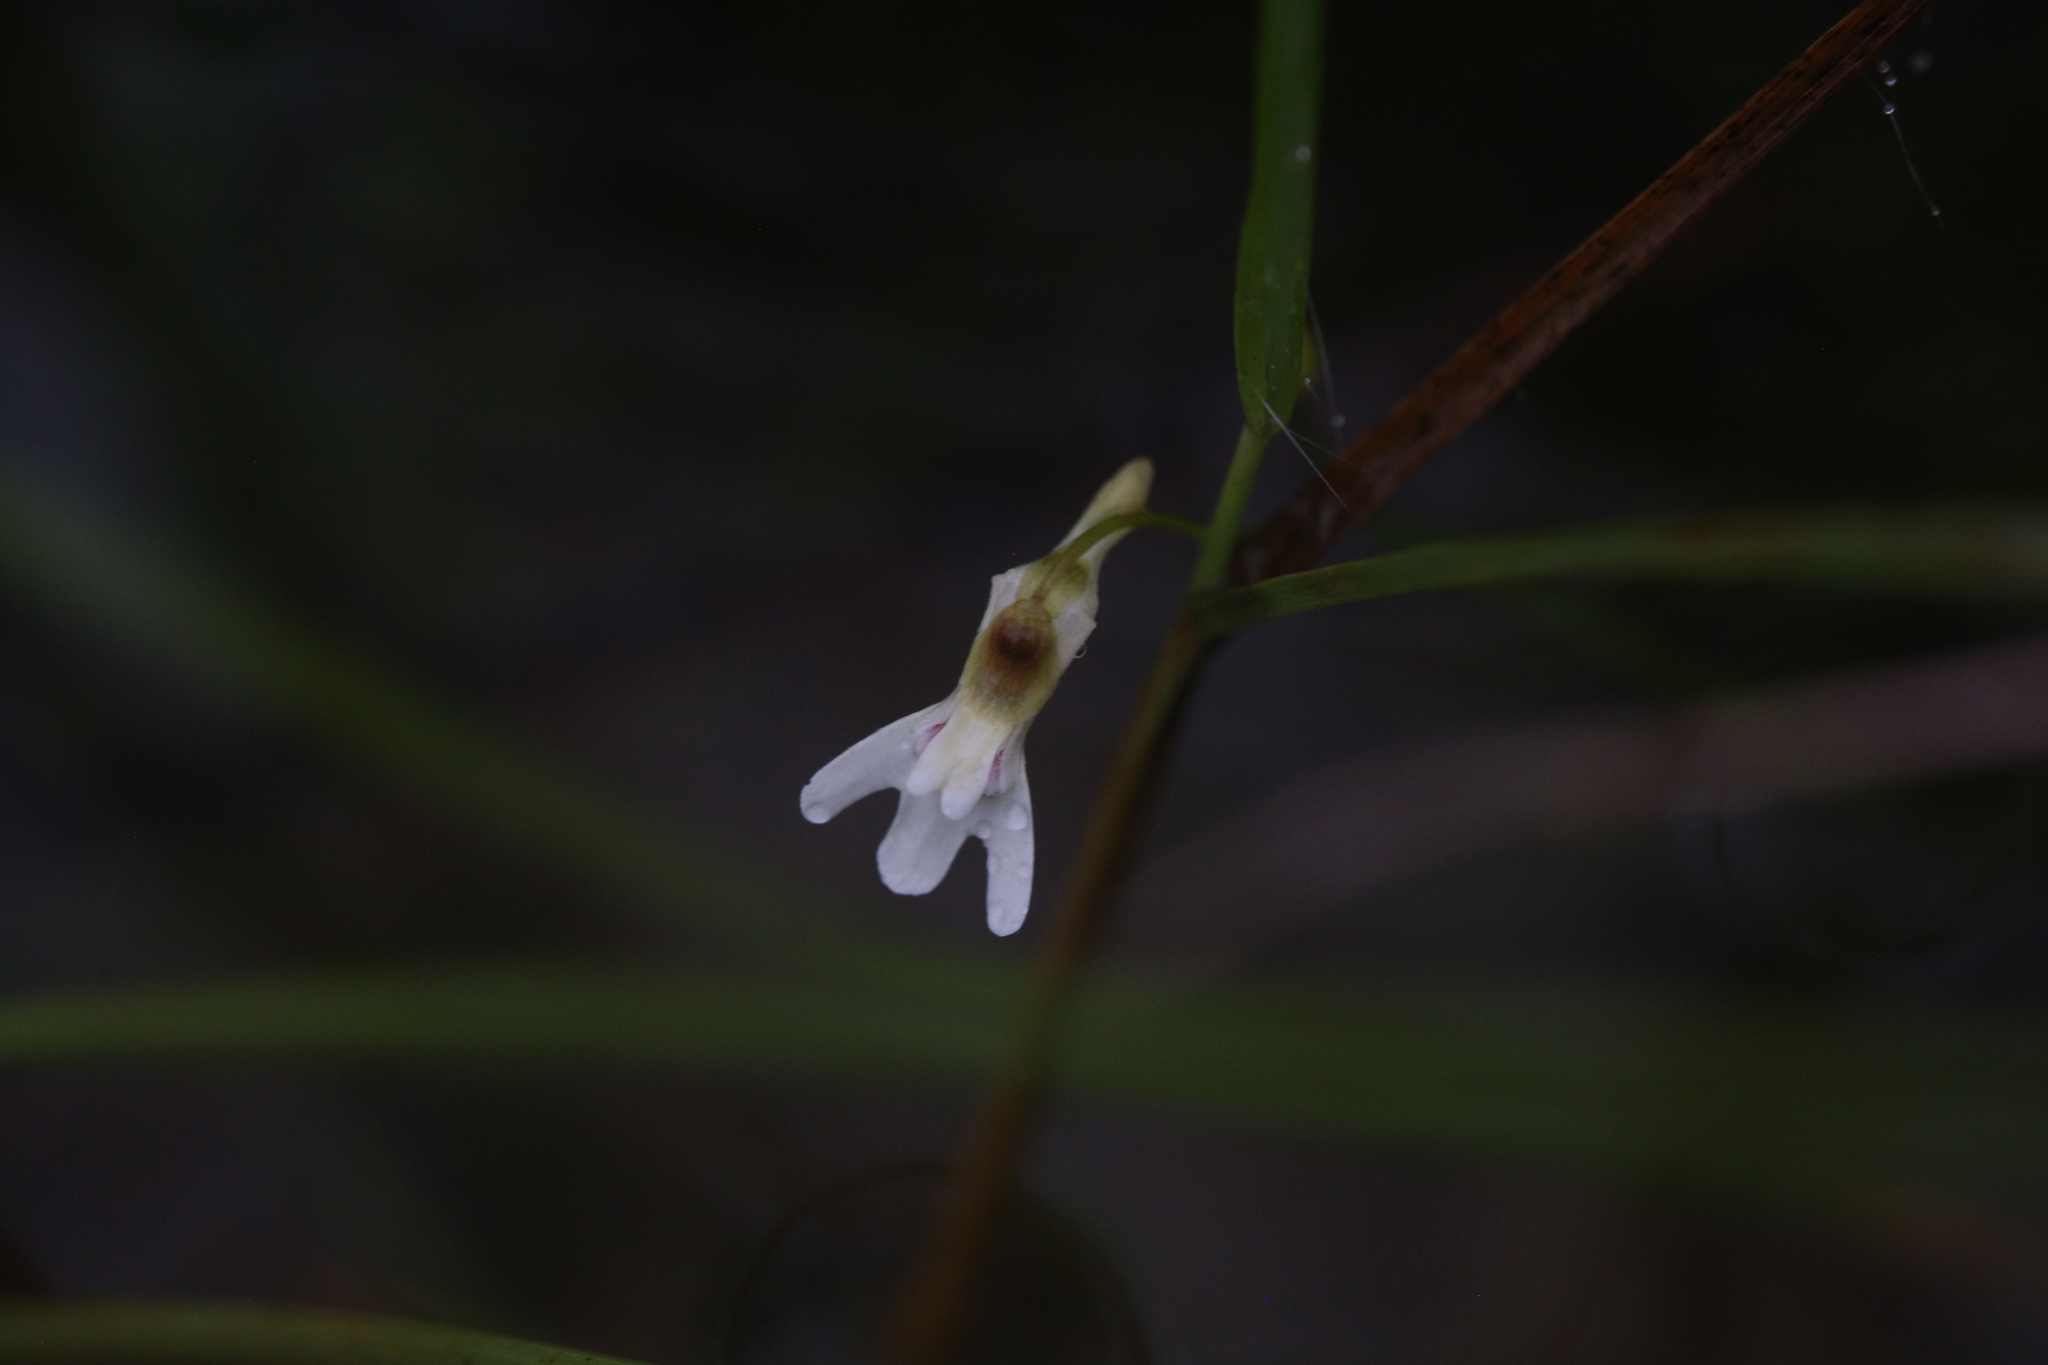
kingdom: Plantae
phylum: Tracheophyta
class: Magnoliopsida
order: Lamiales
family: Lentibulariaceae
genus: Utricularia
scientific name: Utricularia kamienskii
